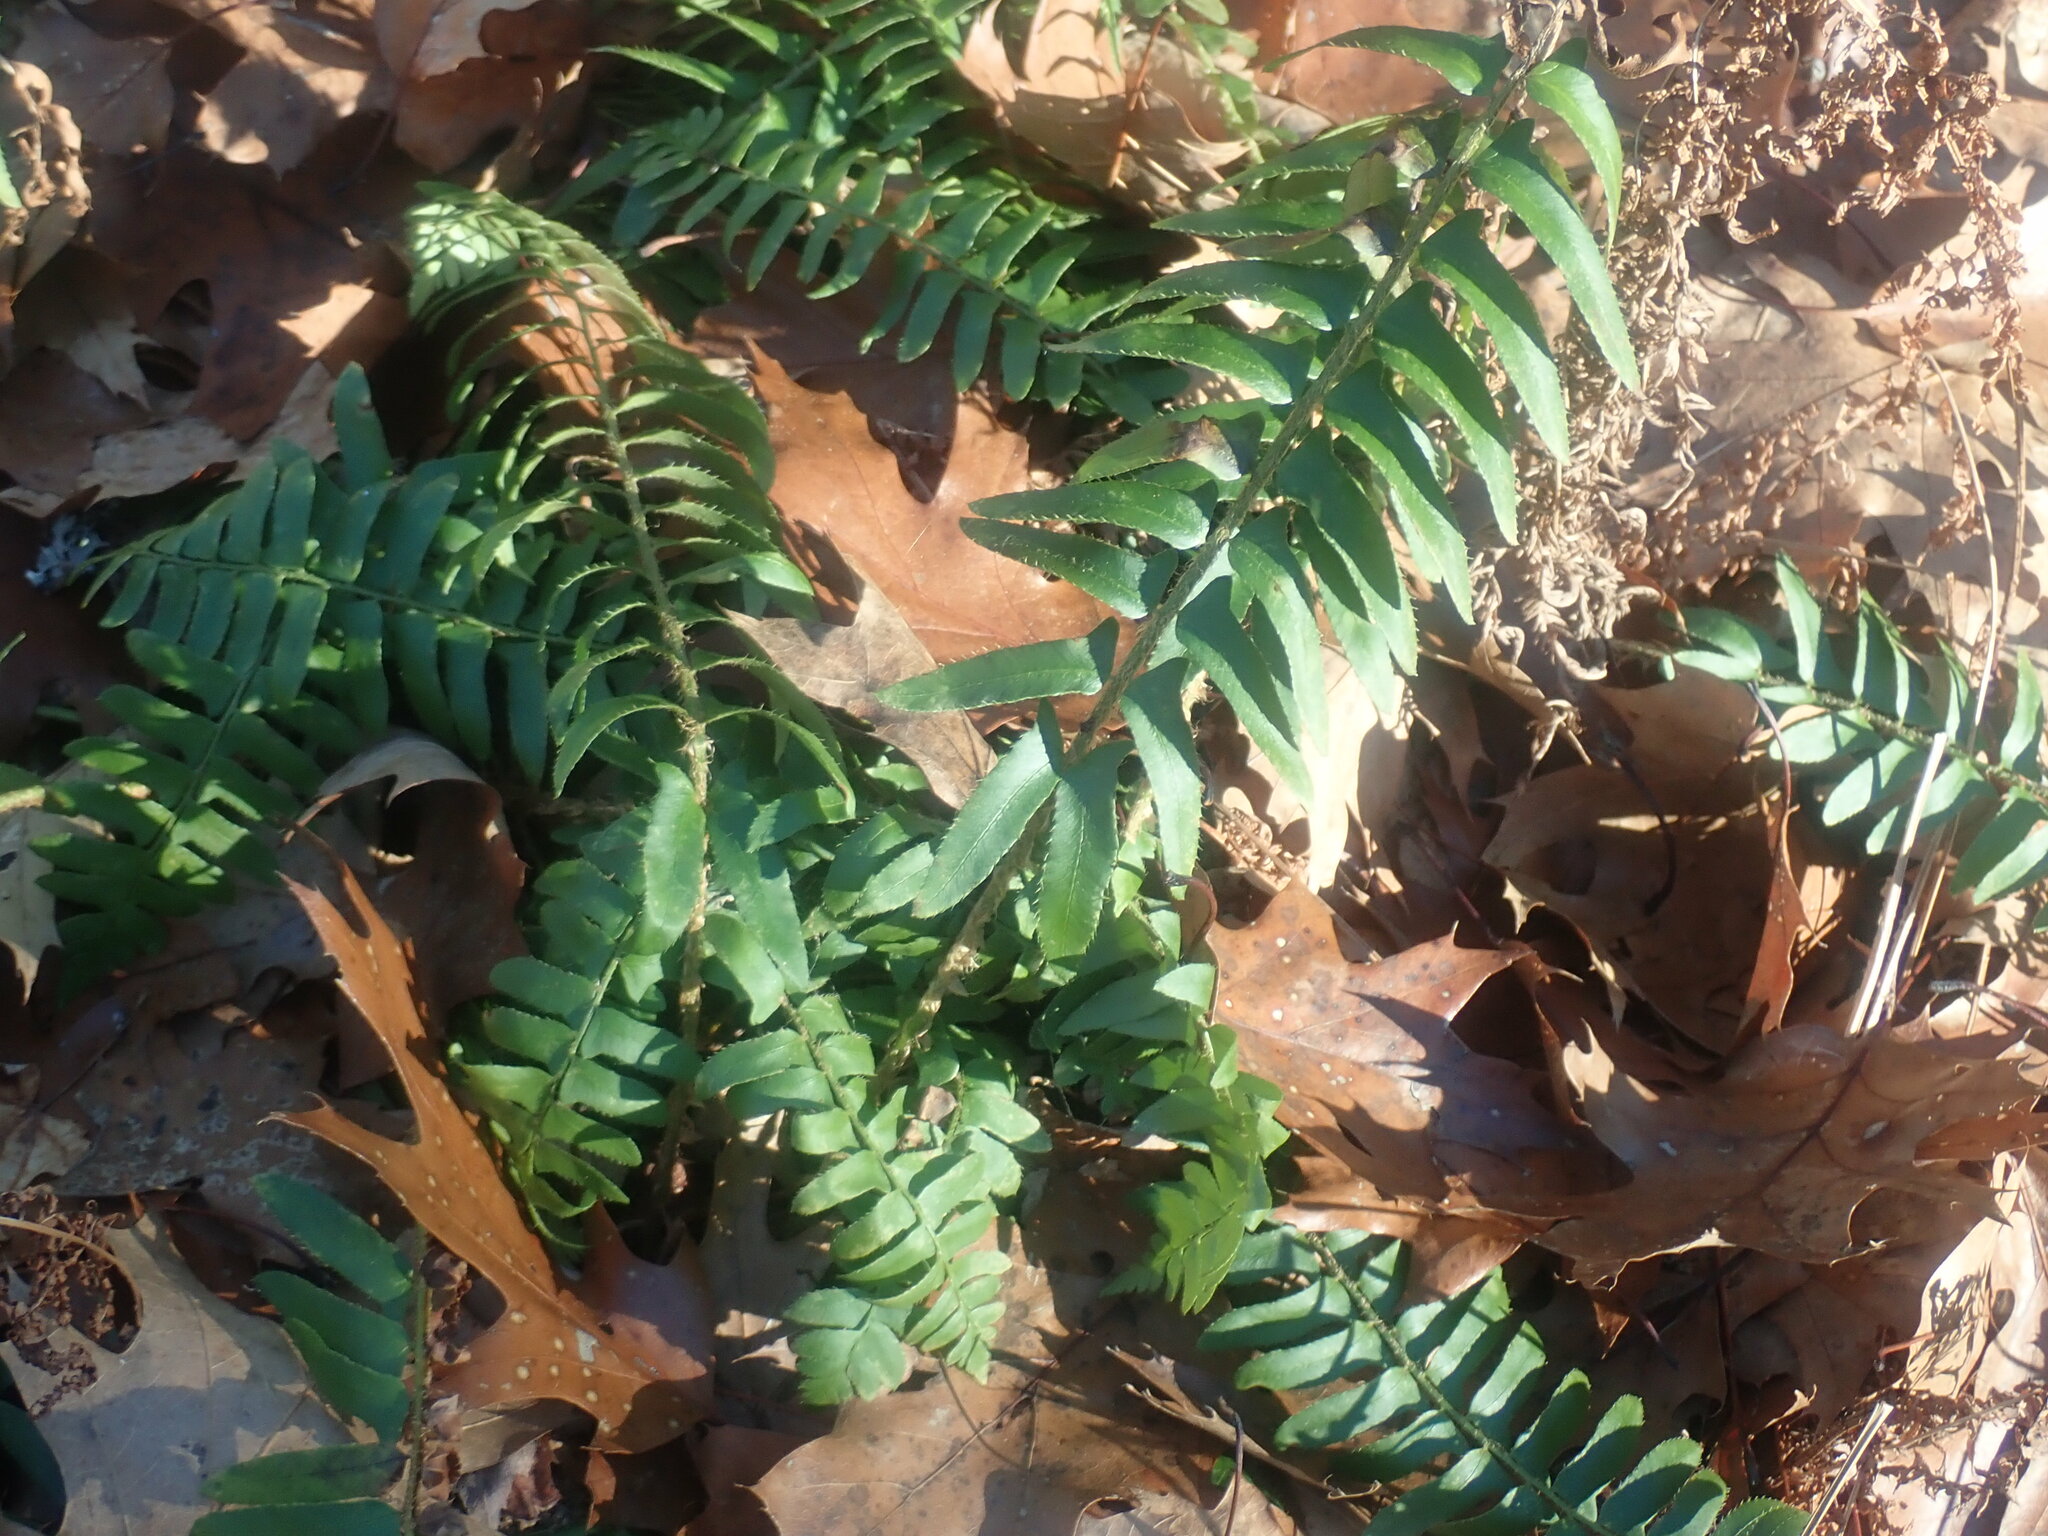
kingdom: Plantae
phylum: Tracheophyta
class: Polypodiopsida
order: Polypodiales
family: Dryopteridaceae
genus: Polystichum
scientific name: Polystichum acrostichoides
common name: Christmas fern
